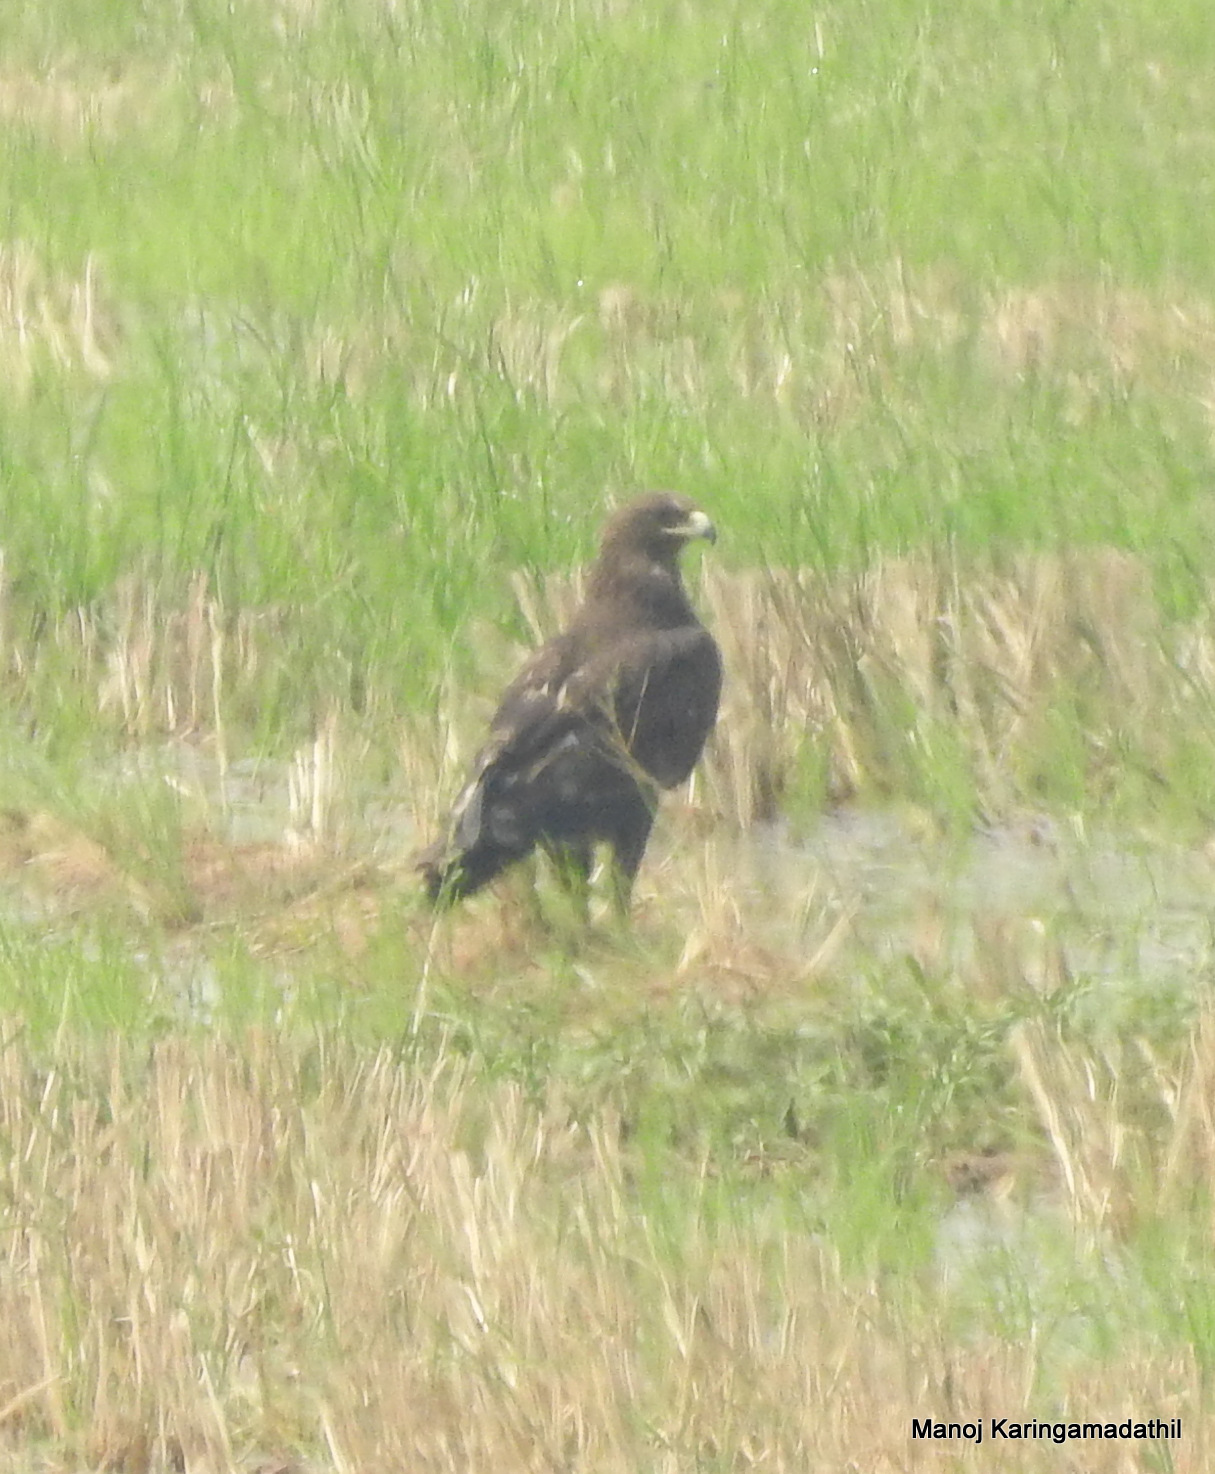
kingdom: Animalia
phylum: Chordata
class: Aves
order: Accipitriformes
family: Accipitridae
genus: Aquila
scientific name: Aquila clanga
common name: Greater spotted eagle
